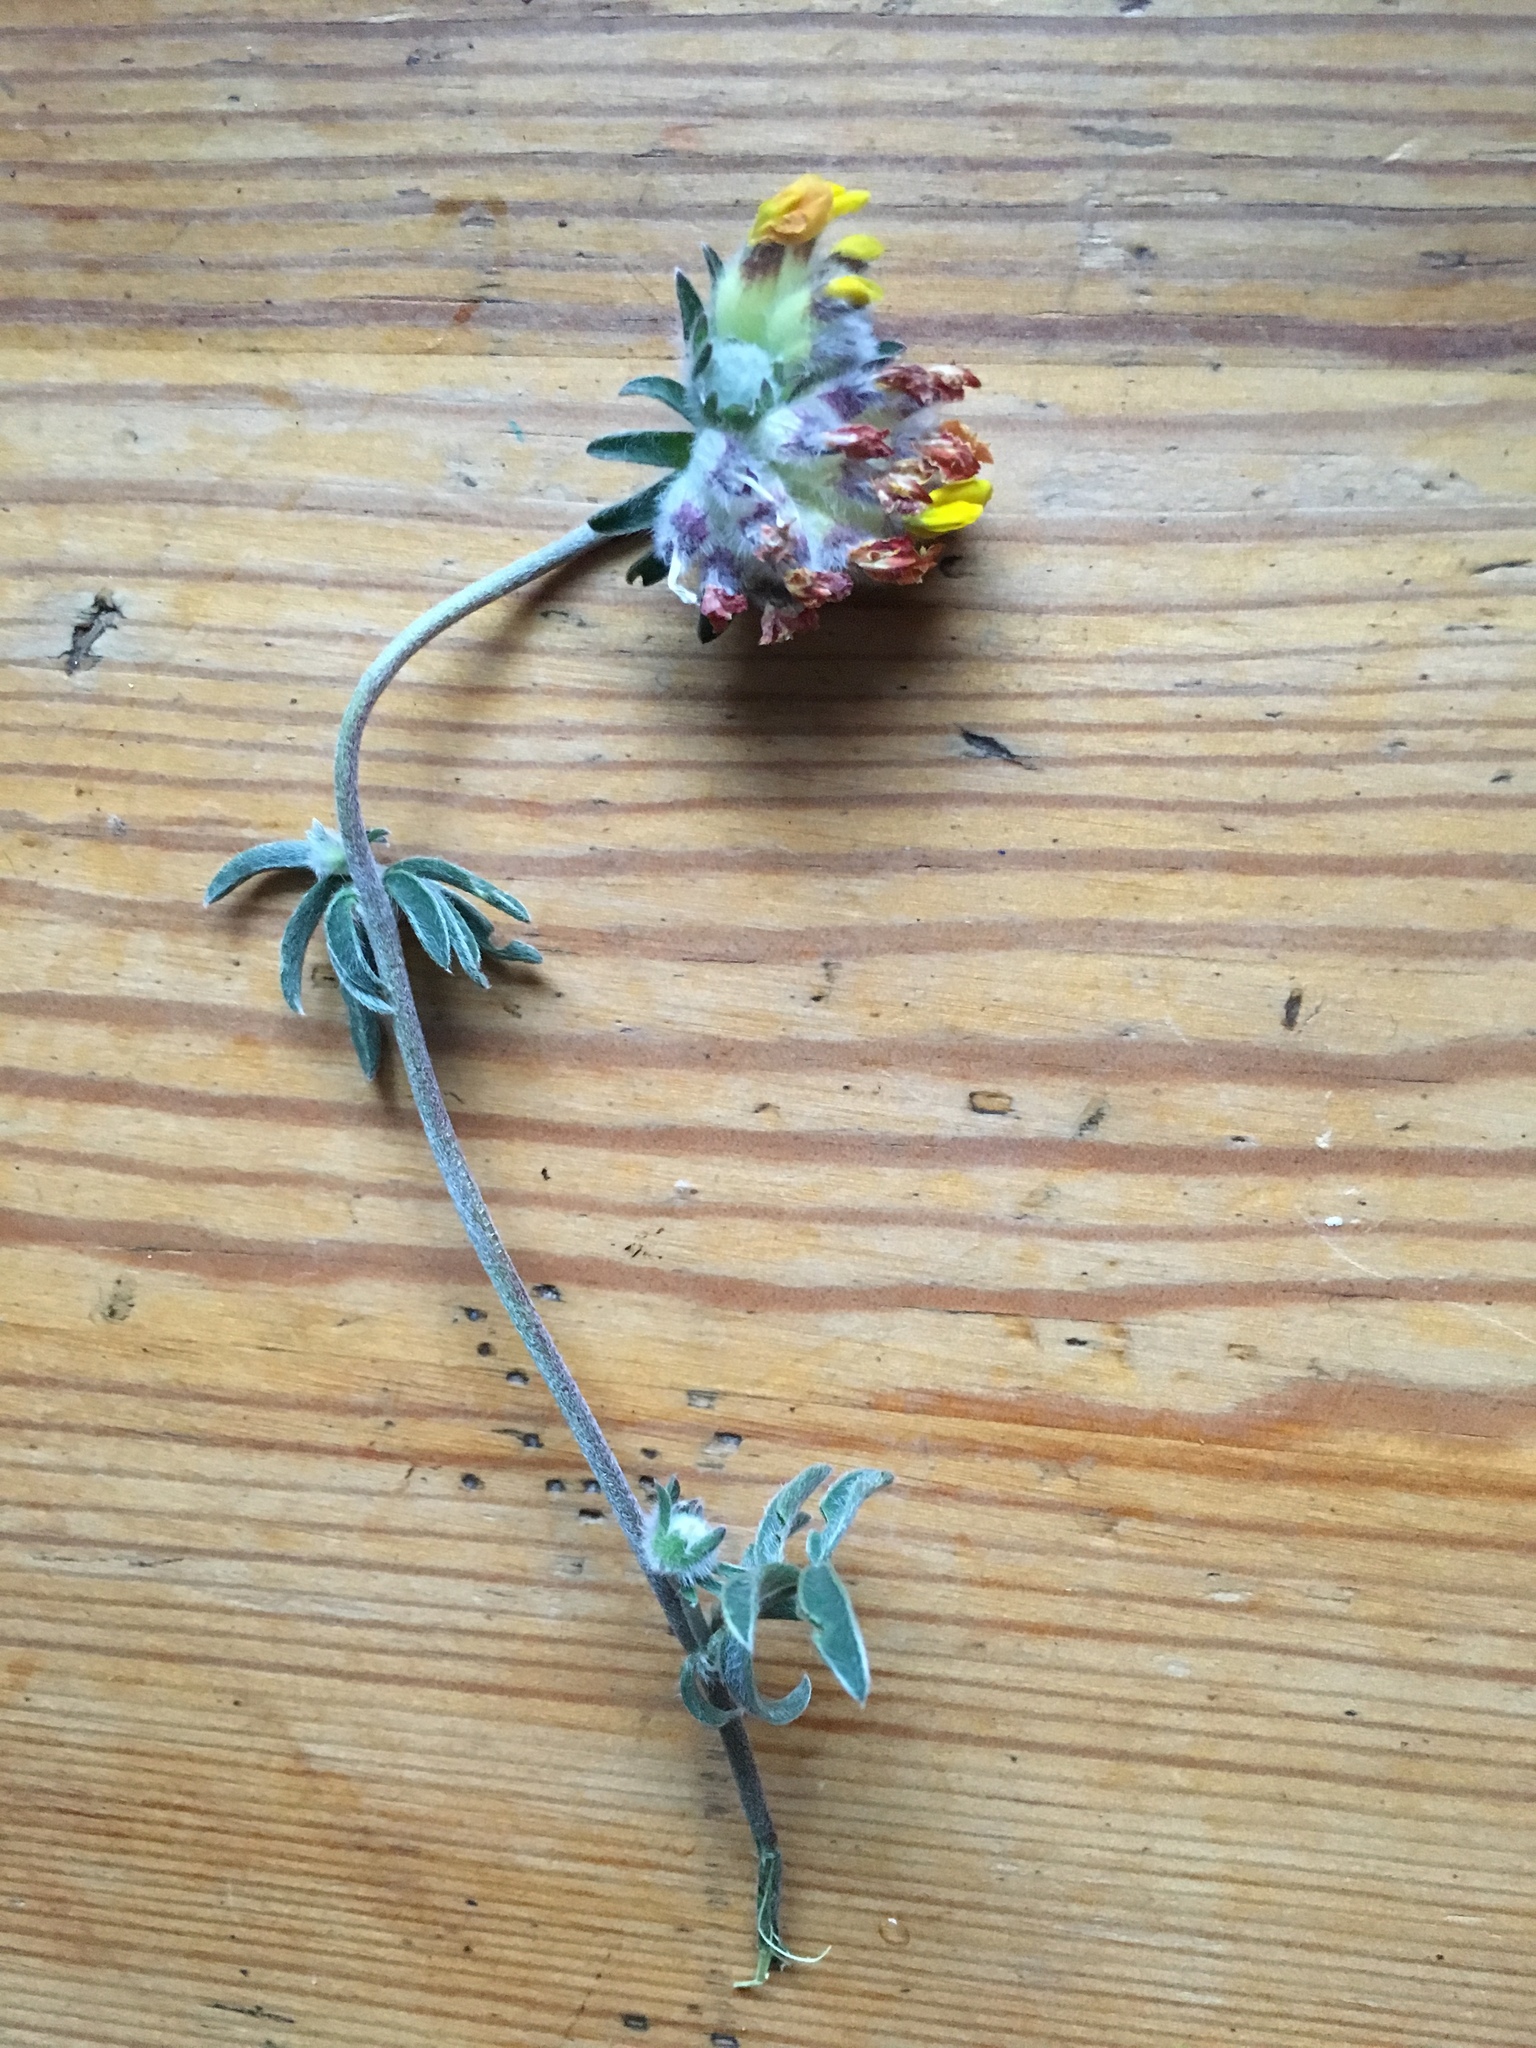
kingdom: Plantae
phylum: Tracheophyta
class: Magnoliopsida
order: Fabales
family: Fabaceae
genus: Anthyllis
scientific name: Anthyllis vulneraria
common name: Kidney vetch
